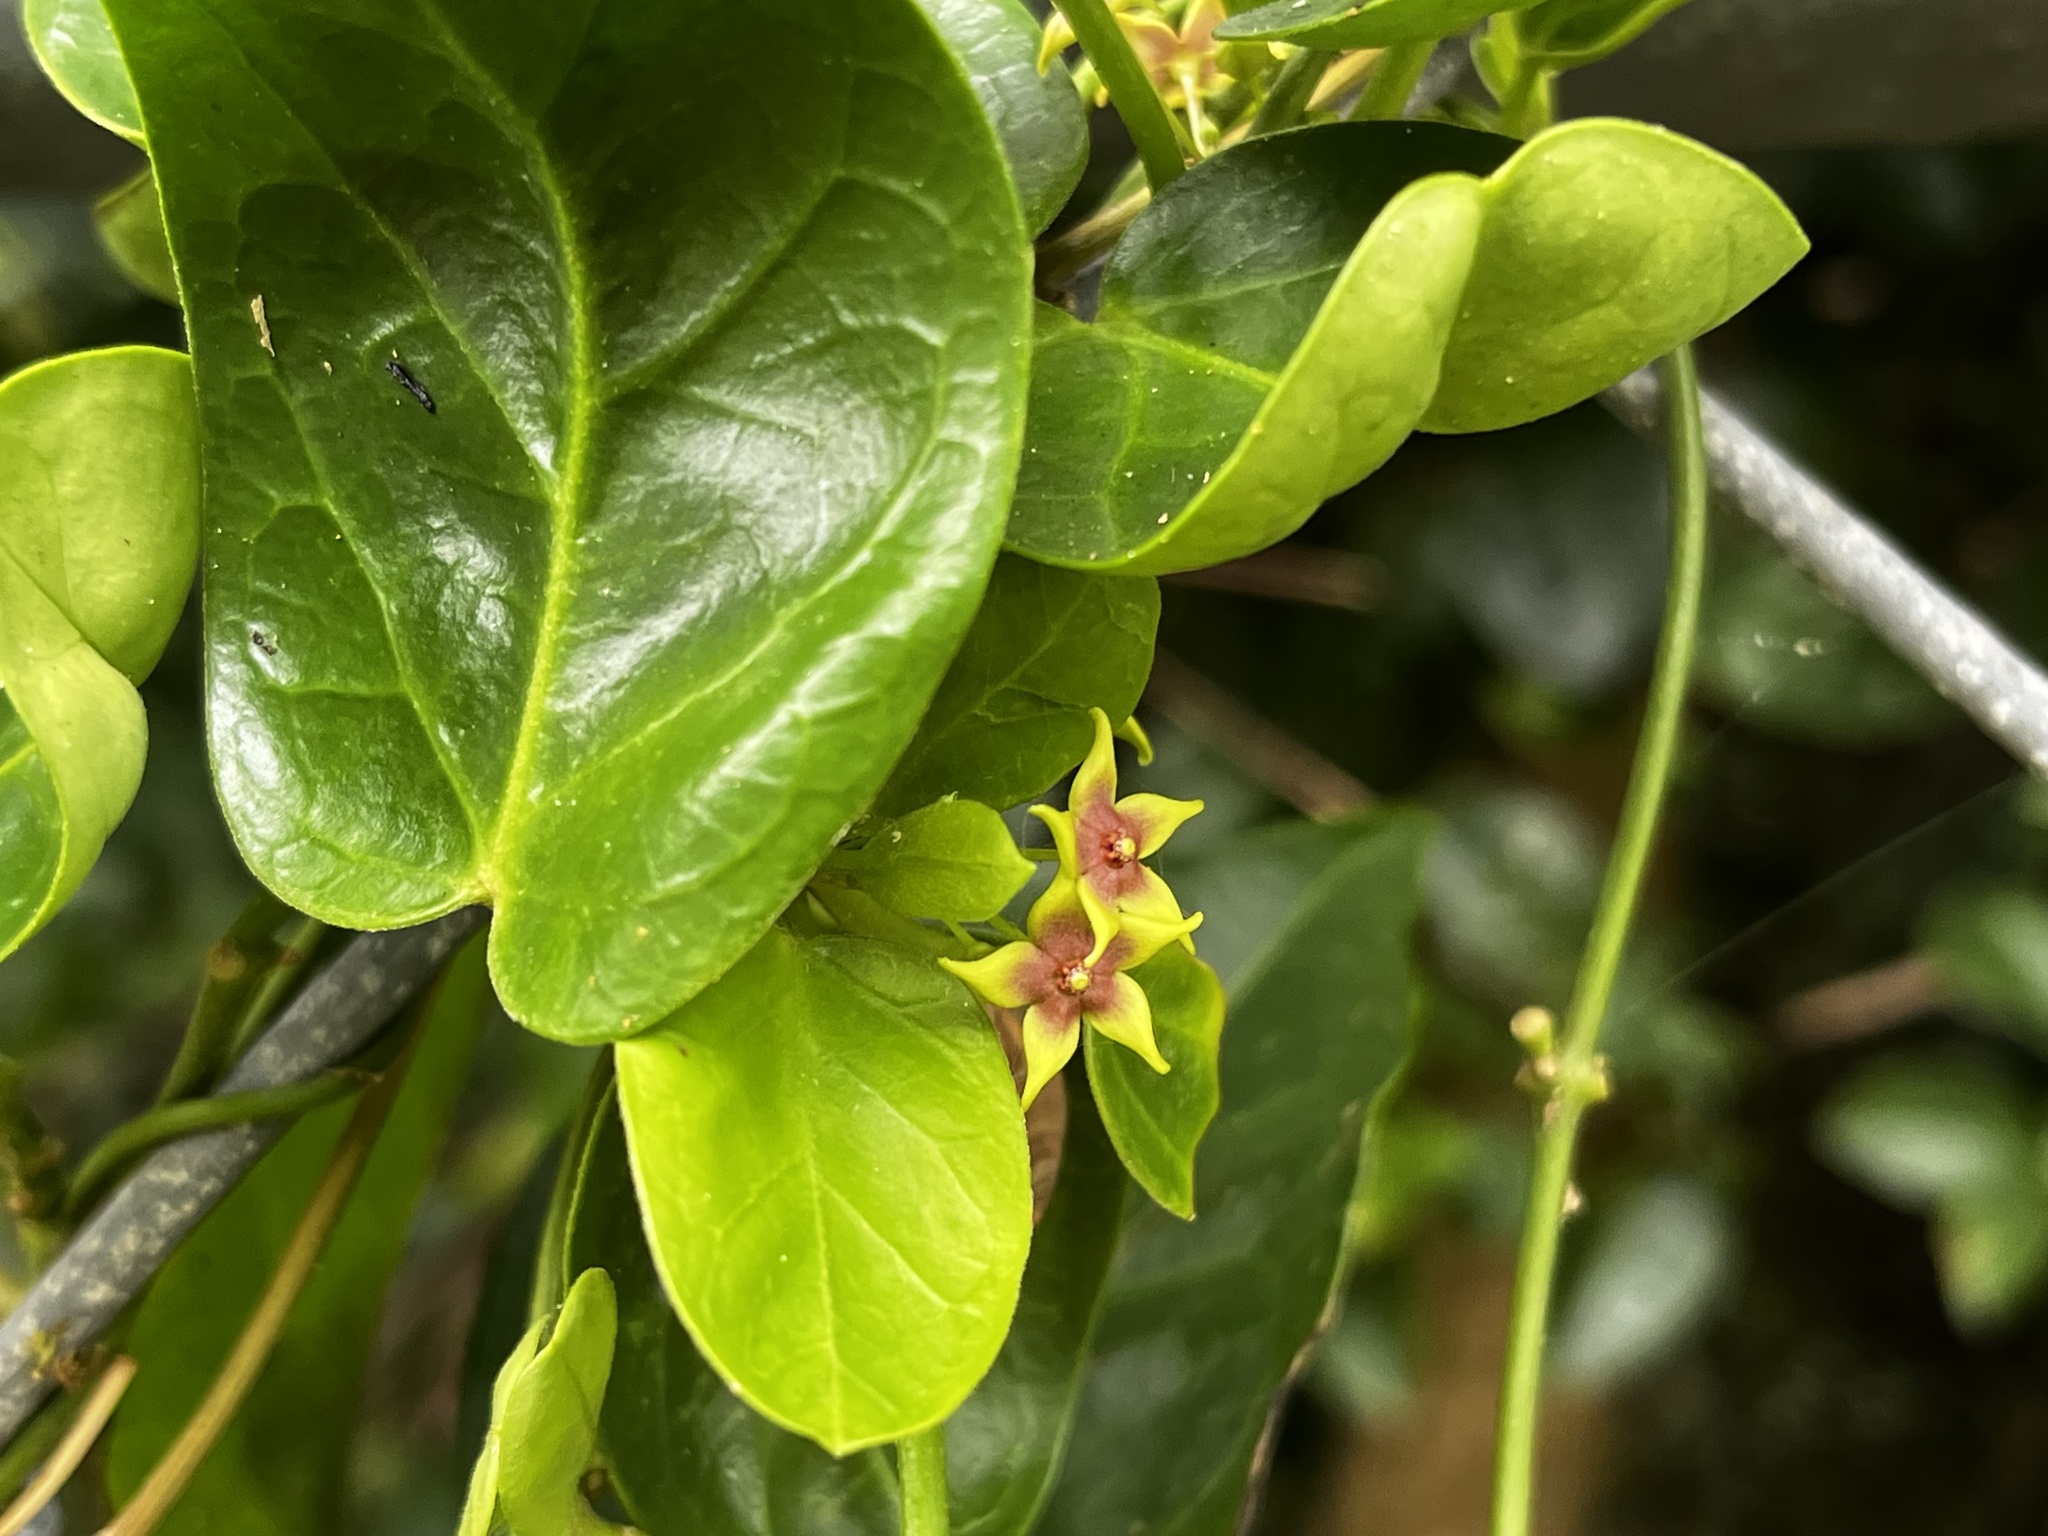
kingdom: Plantae
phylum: Tracheophyta
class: Magnoliopsida
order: Gentianales
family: Apocynaceae
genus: Vincetoxicum
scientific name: Vincetoxicum sui
